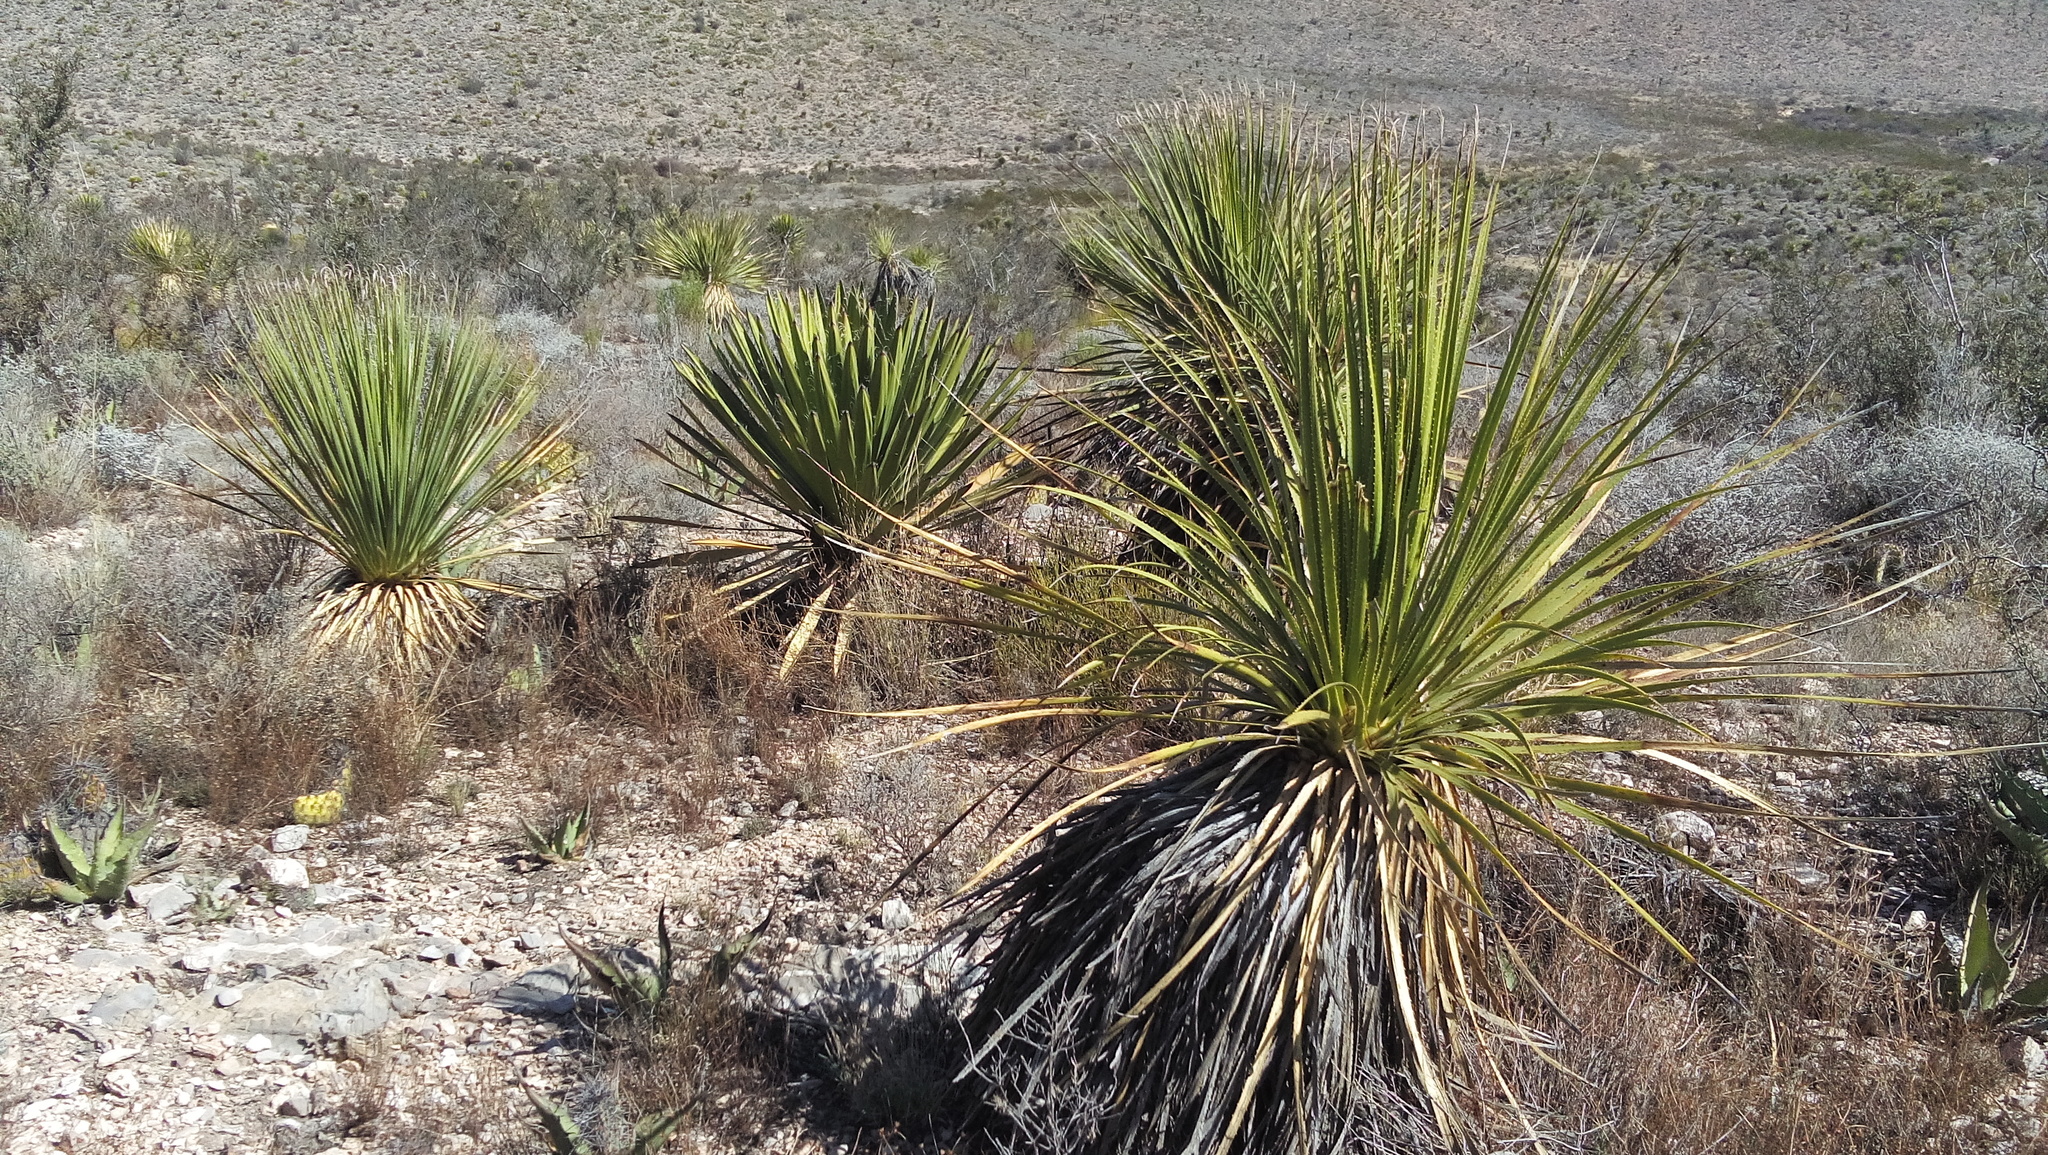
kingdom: Plantae
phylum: Tracheophyta
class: Liliopsida
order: Asparagales
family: Asparagaceae
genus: Dasylirion
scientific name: Dasylirion acrotrichum
